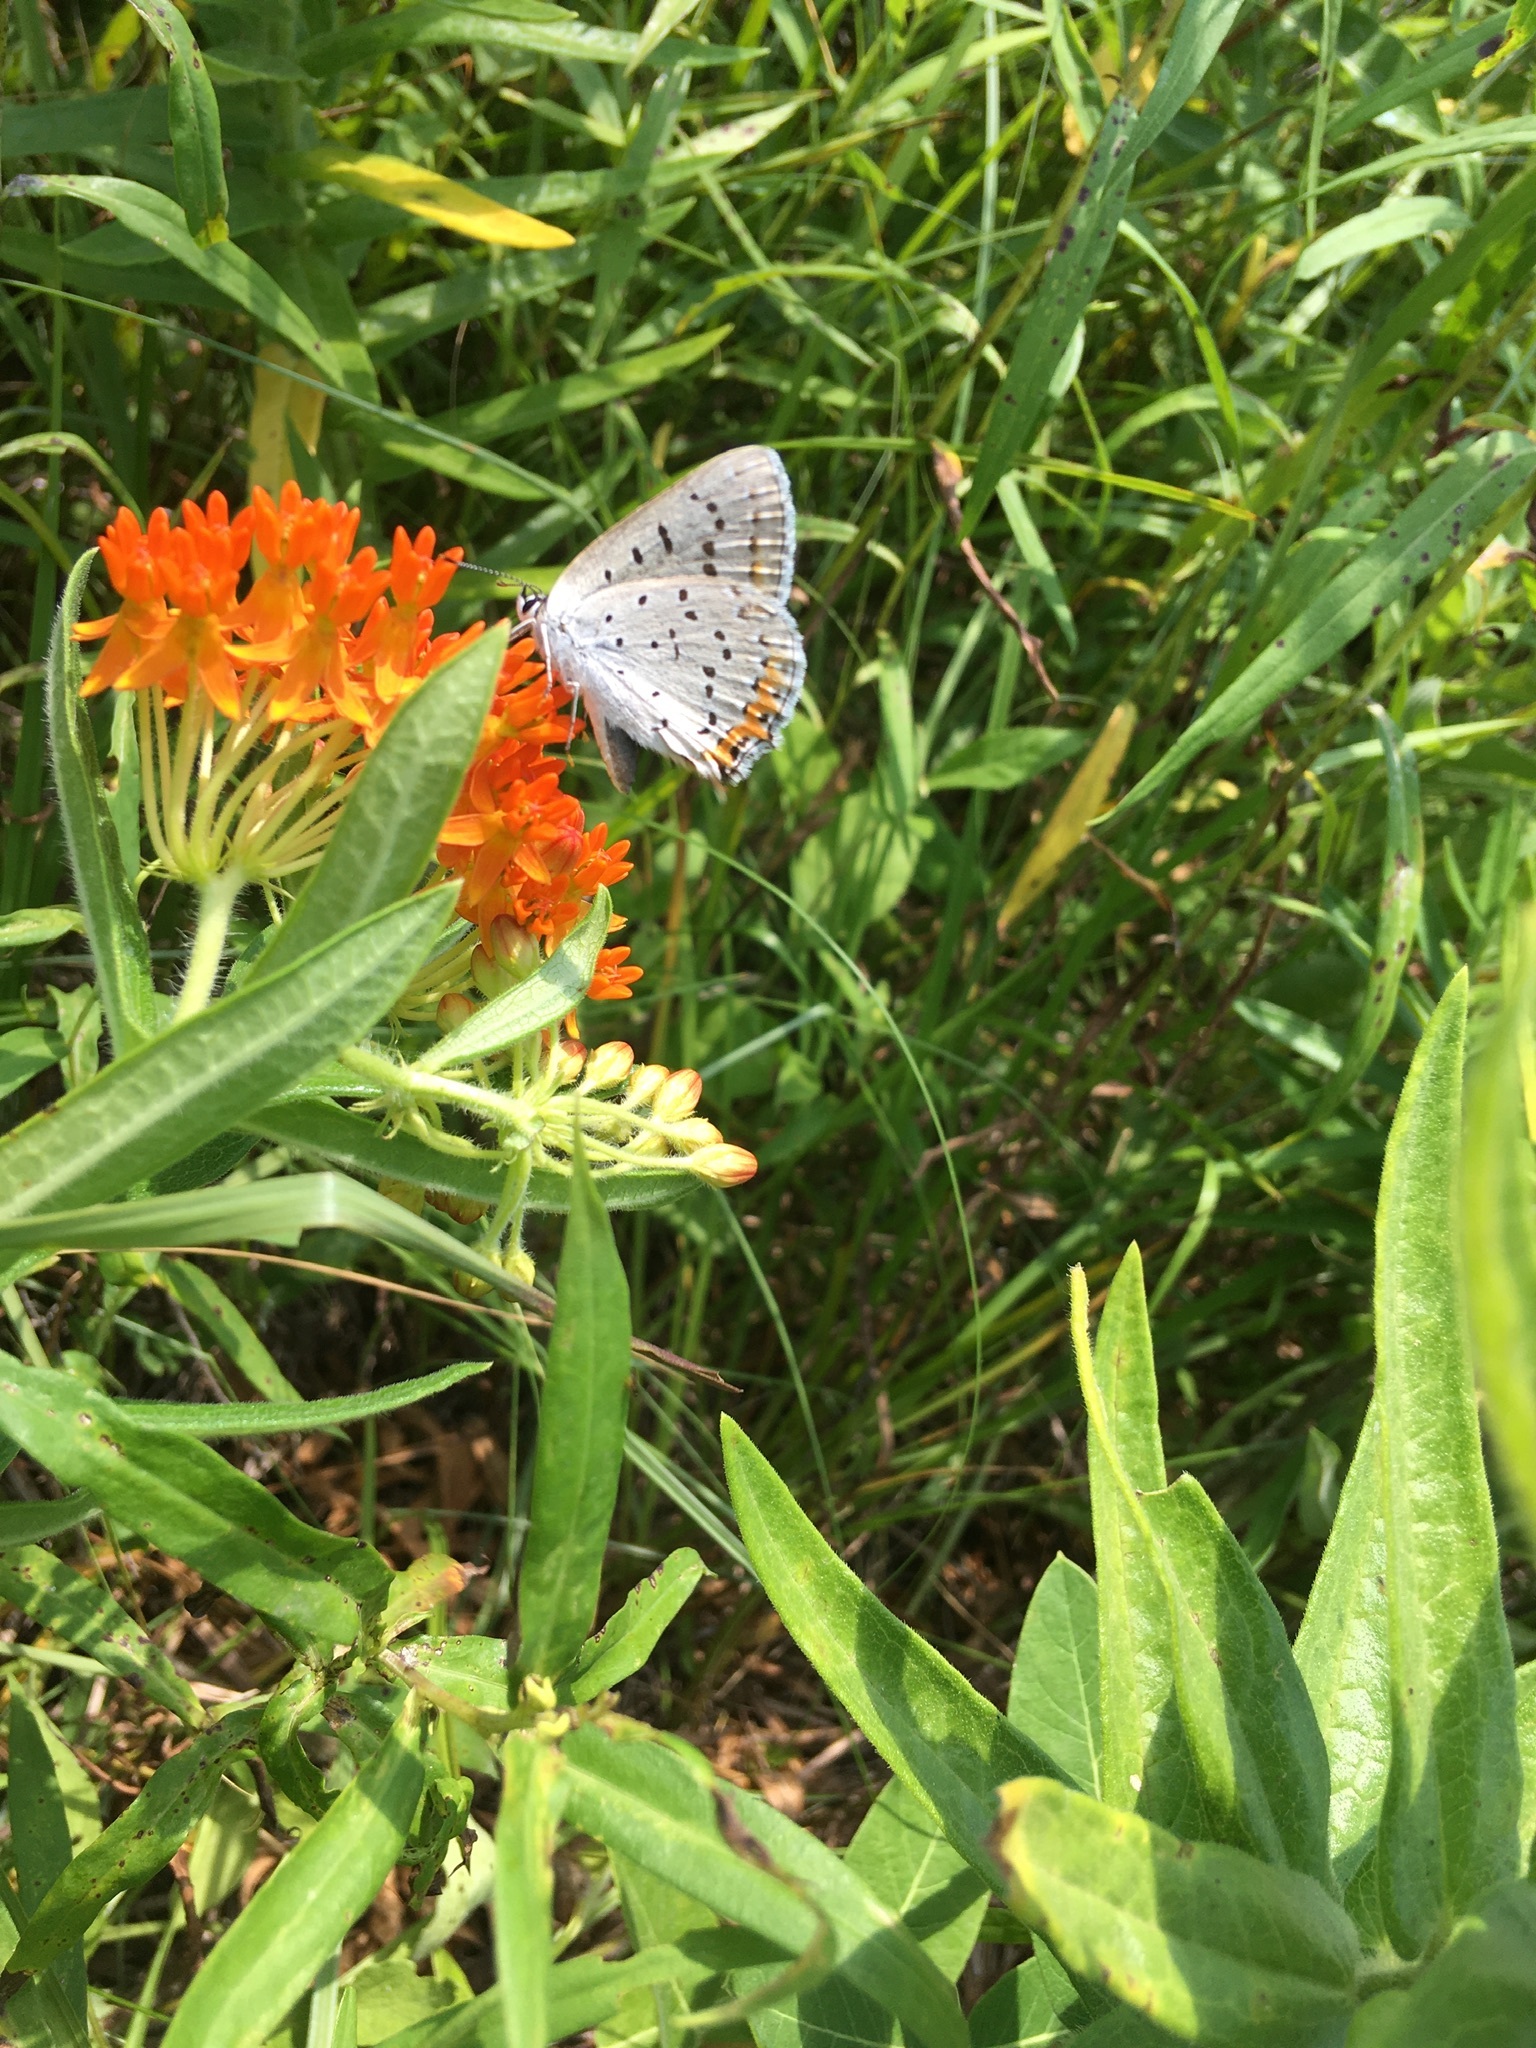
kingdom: Animalia
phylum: Arthropoda
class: Insecta
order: Lepidoptera
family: Lycaenidae
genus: Tharsalea
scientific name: Tharsalea dione
